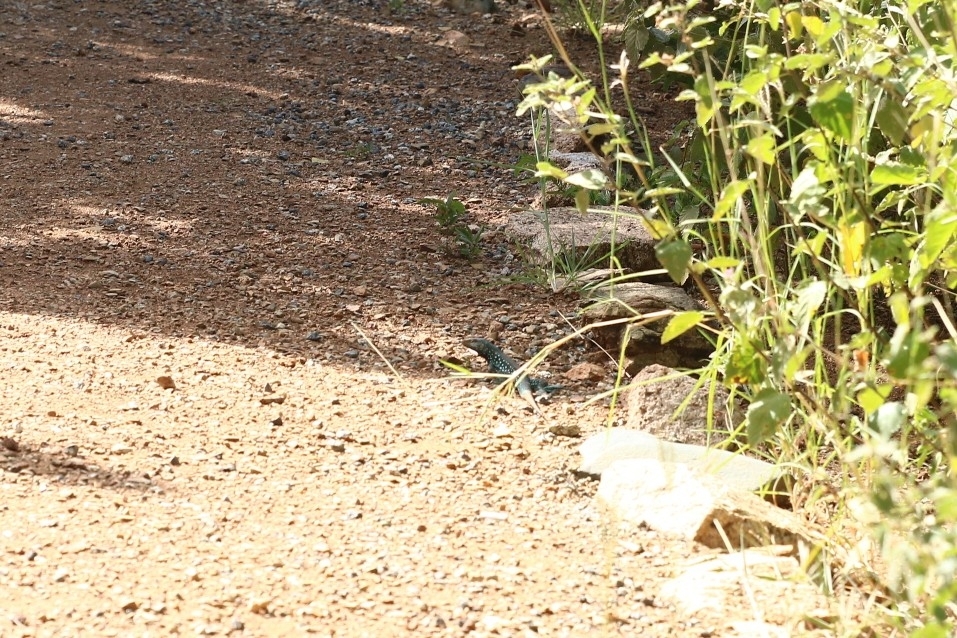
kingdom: Animalia
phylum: Chordata
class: Squamata
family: Teiidae
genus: Cnemidophorus
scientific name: Cnemidophorus arubensis
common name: Aruba whiptail
